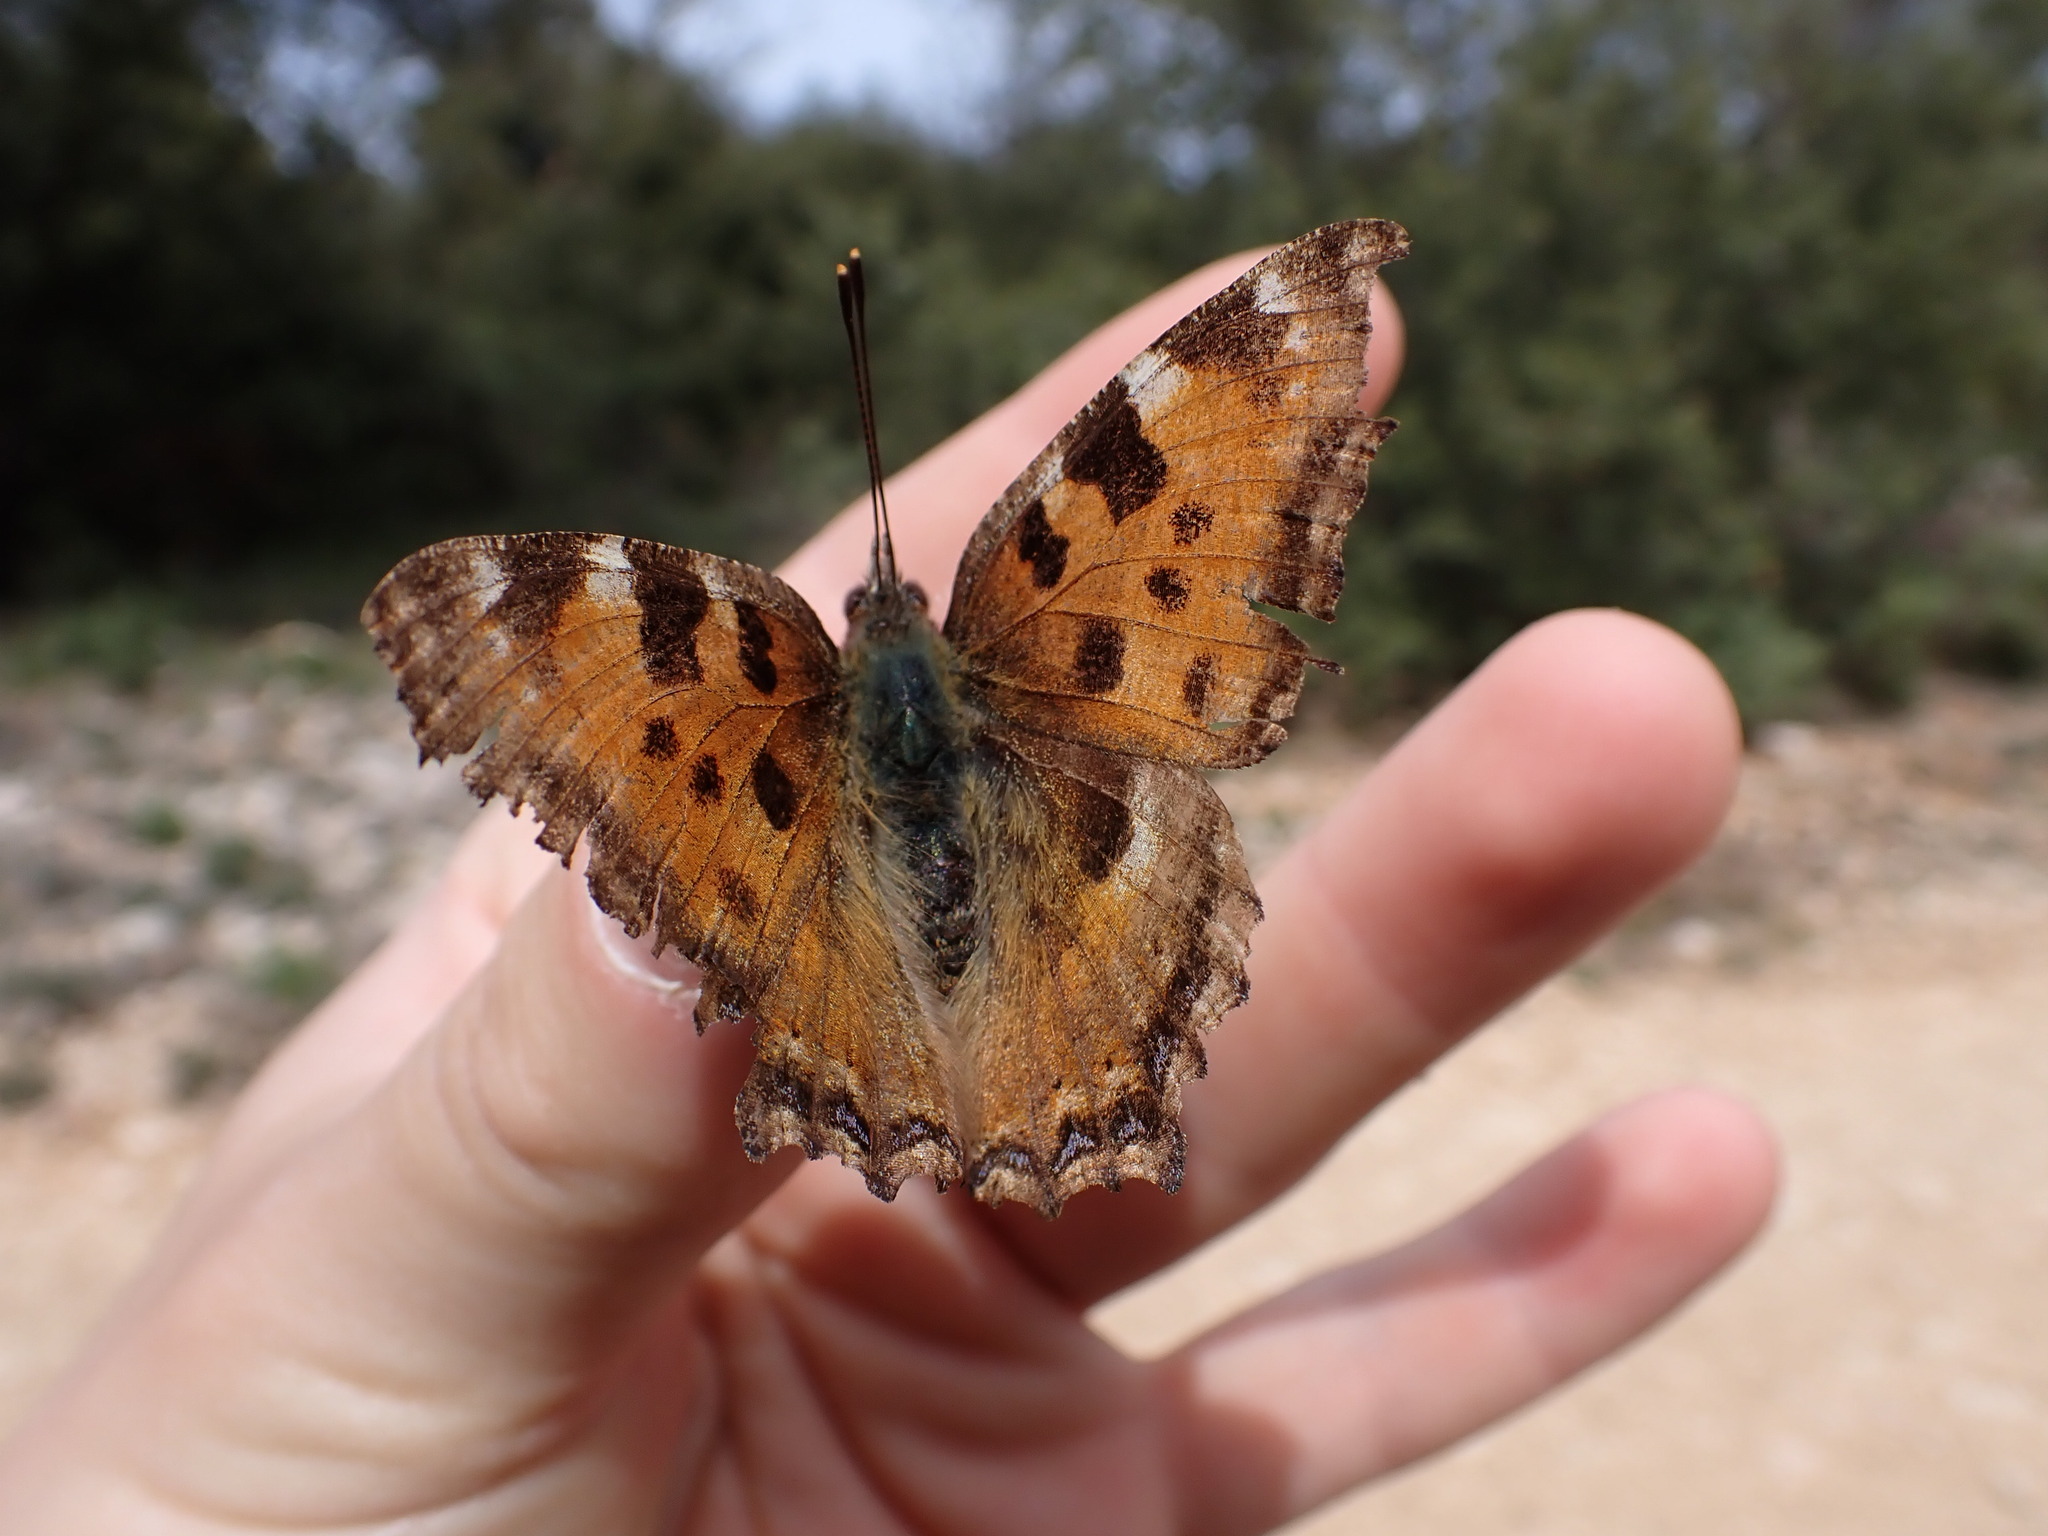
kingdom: Animalia
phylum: Arthropoda
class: Insecta
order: Lepidoptera
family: Nymphalidae
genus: Nymphalis
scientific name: Nymphalis polychloros
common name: Large tortoiseshell
